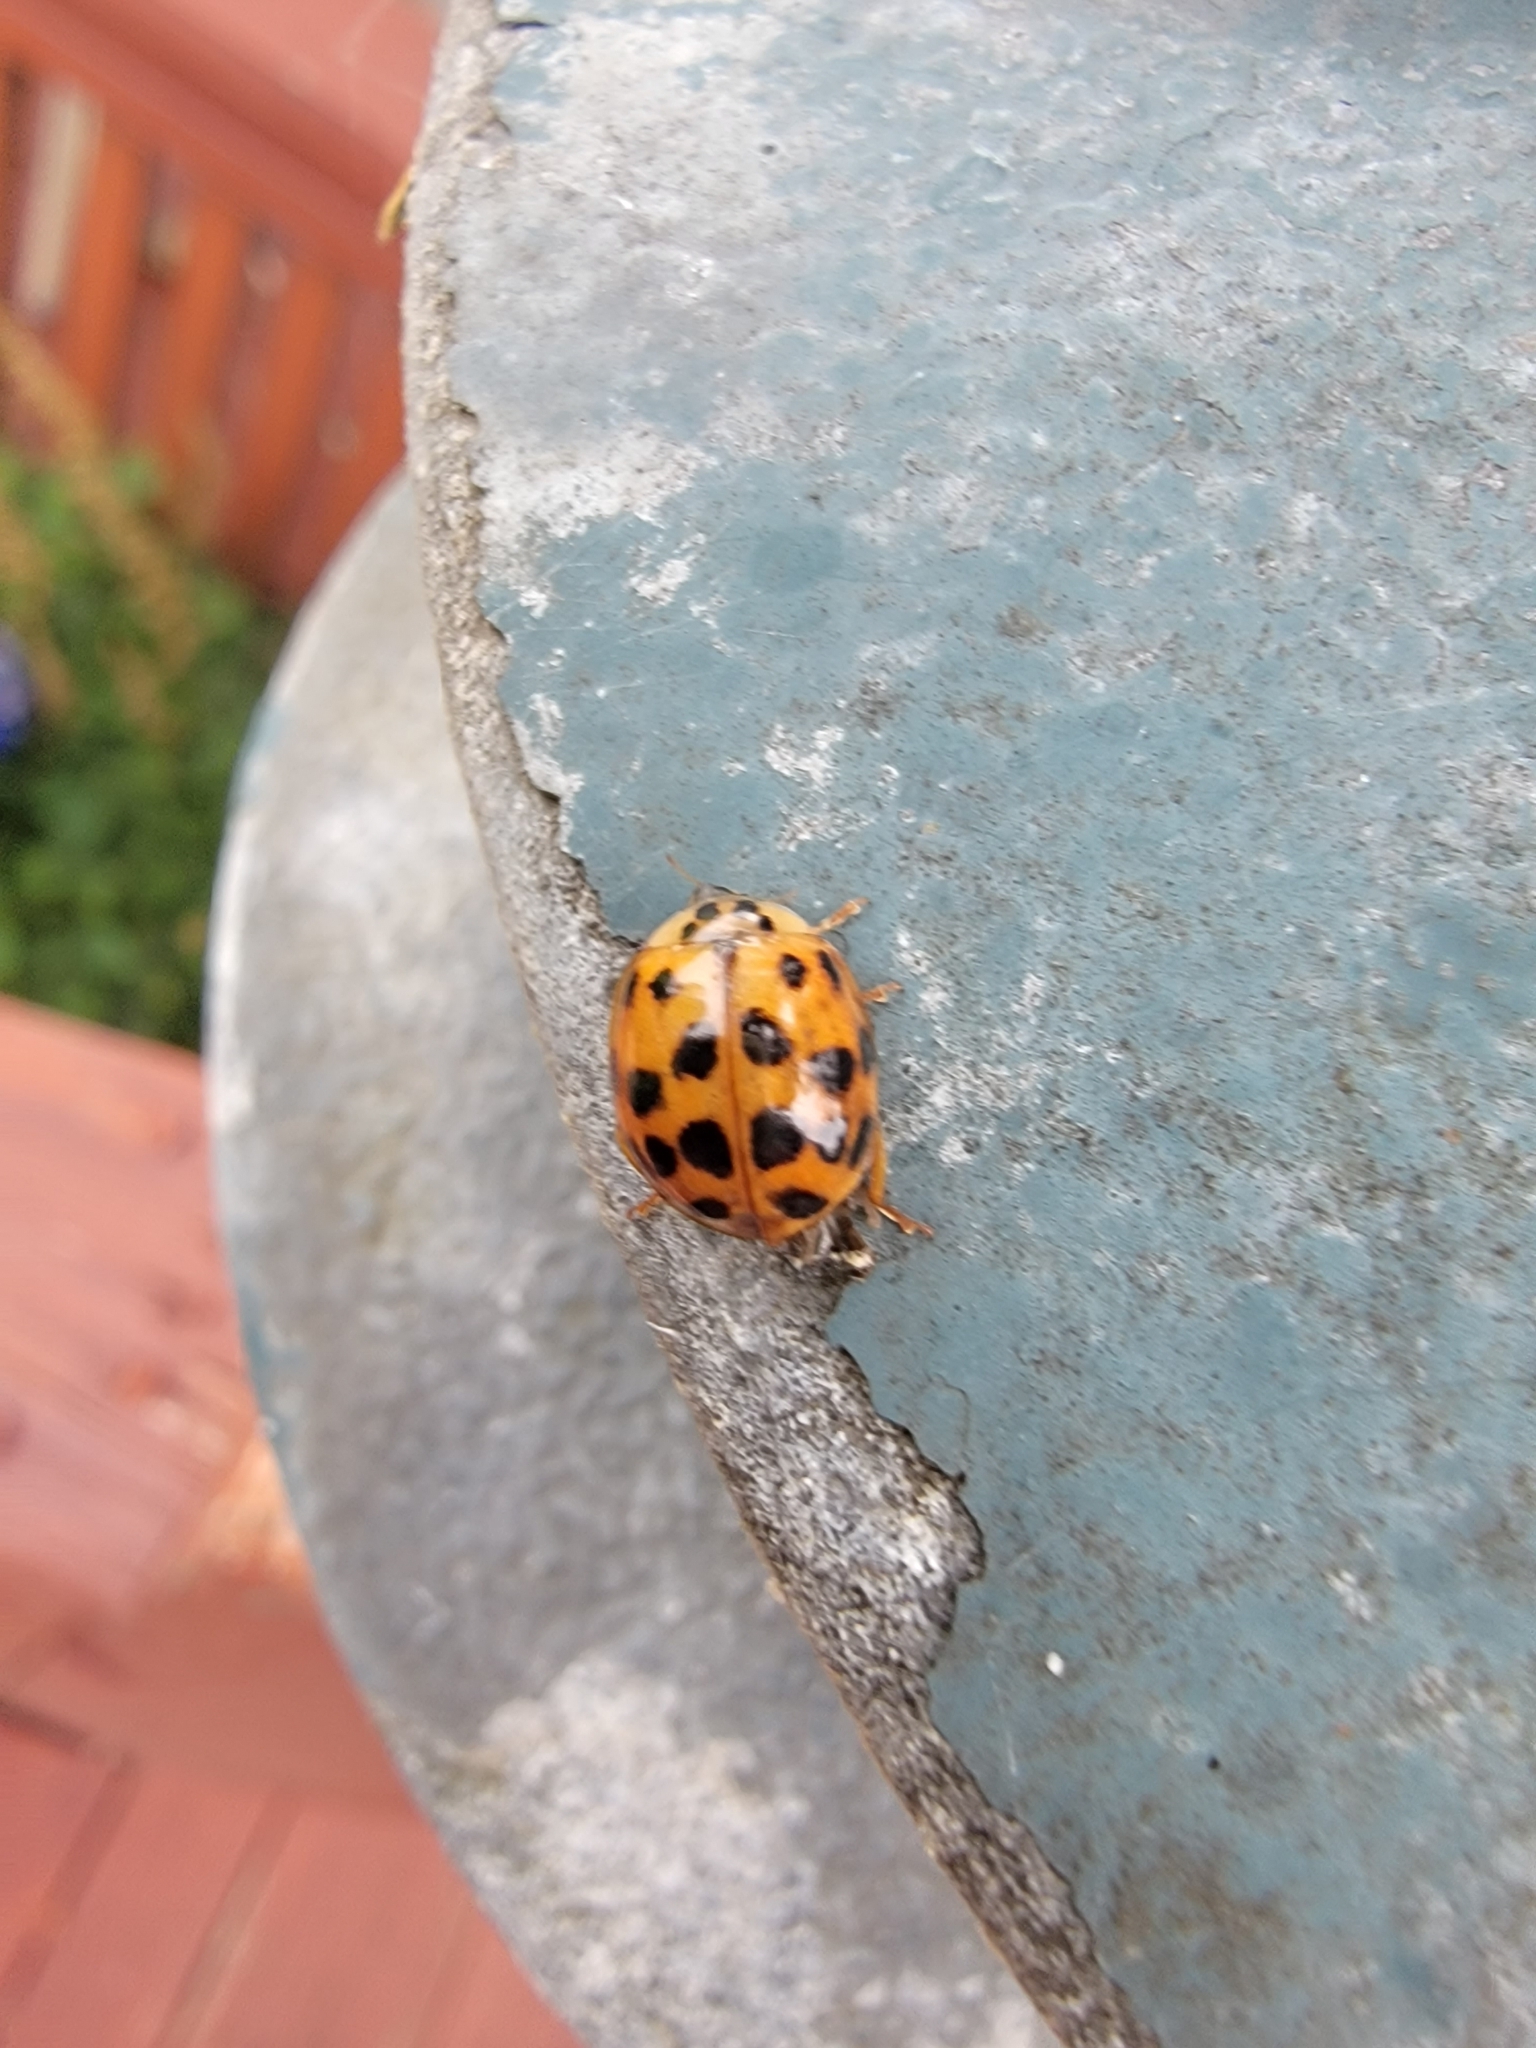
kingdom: Animalia
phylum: Arthropoda
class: Insecta
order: Coleoptera
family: Coccinellidae
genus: Harmonia
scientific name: Harmonia axyridis
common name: Harlequin ladybird
